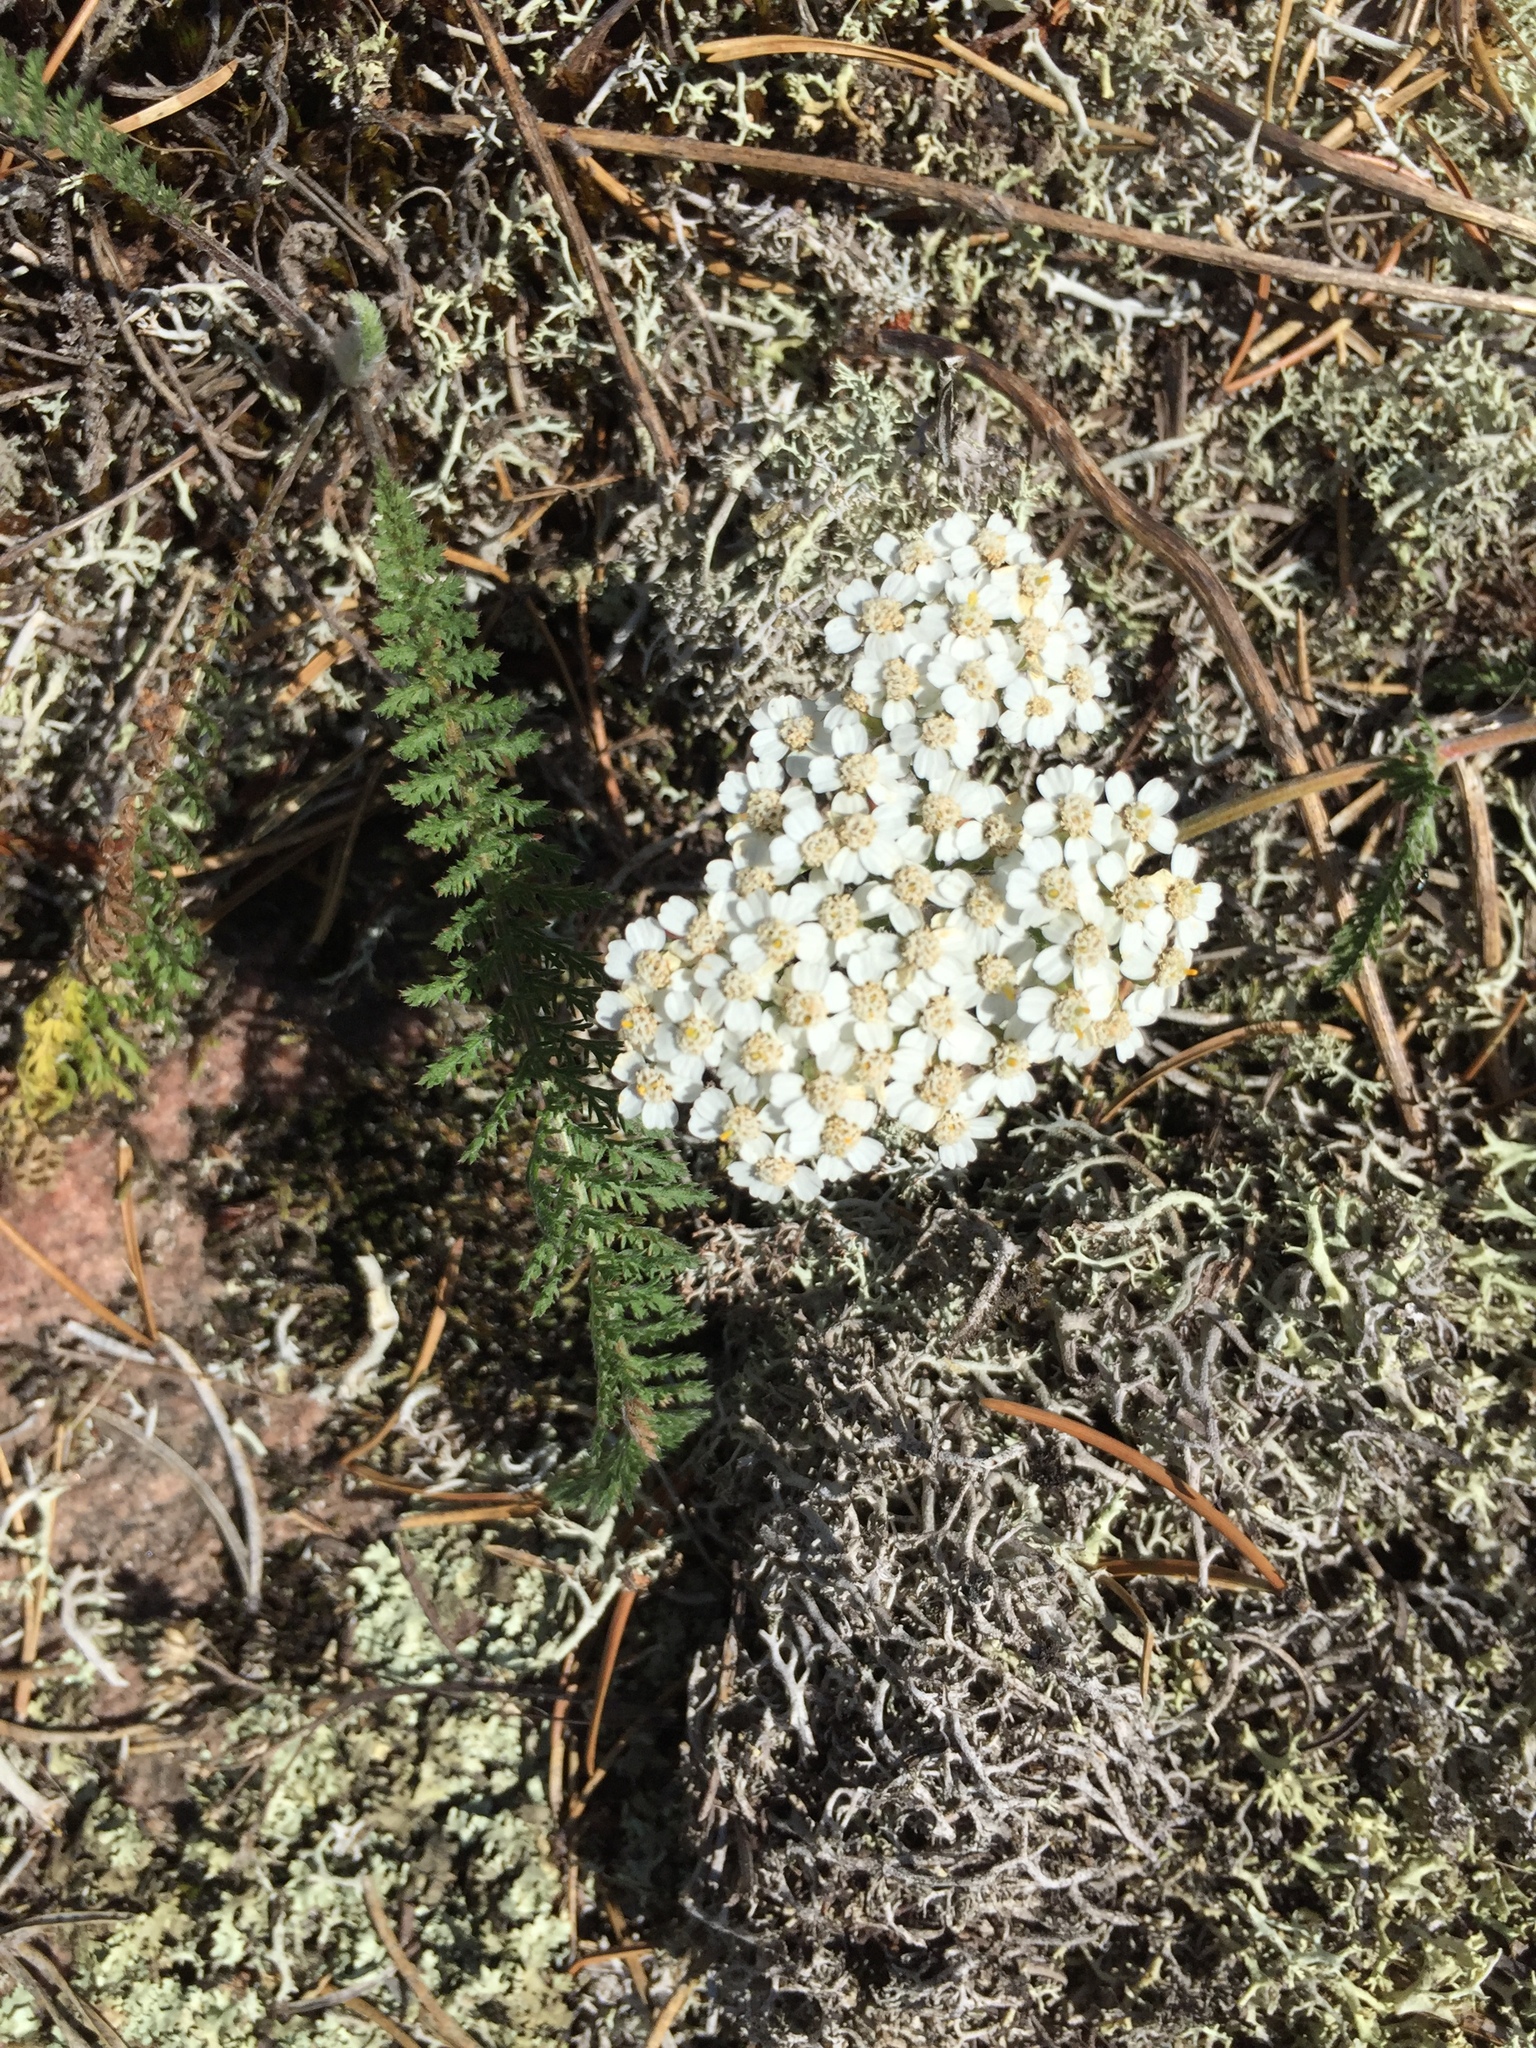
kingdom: Plantae
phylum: Tracheophyta
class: Magnoliopsida
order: Asterales
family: Asteraceae
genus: Achillea
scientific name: Achillea millefolium
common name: Yarrow
